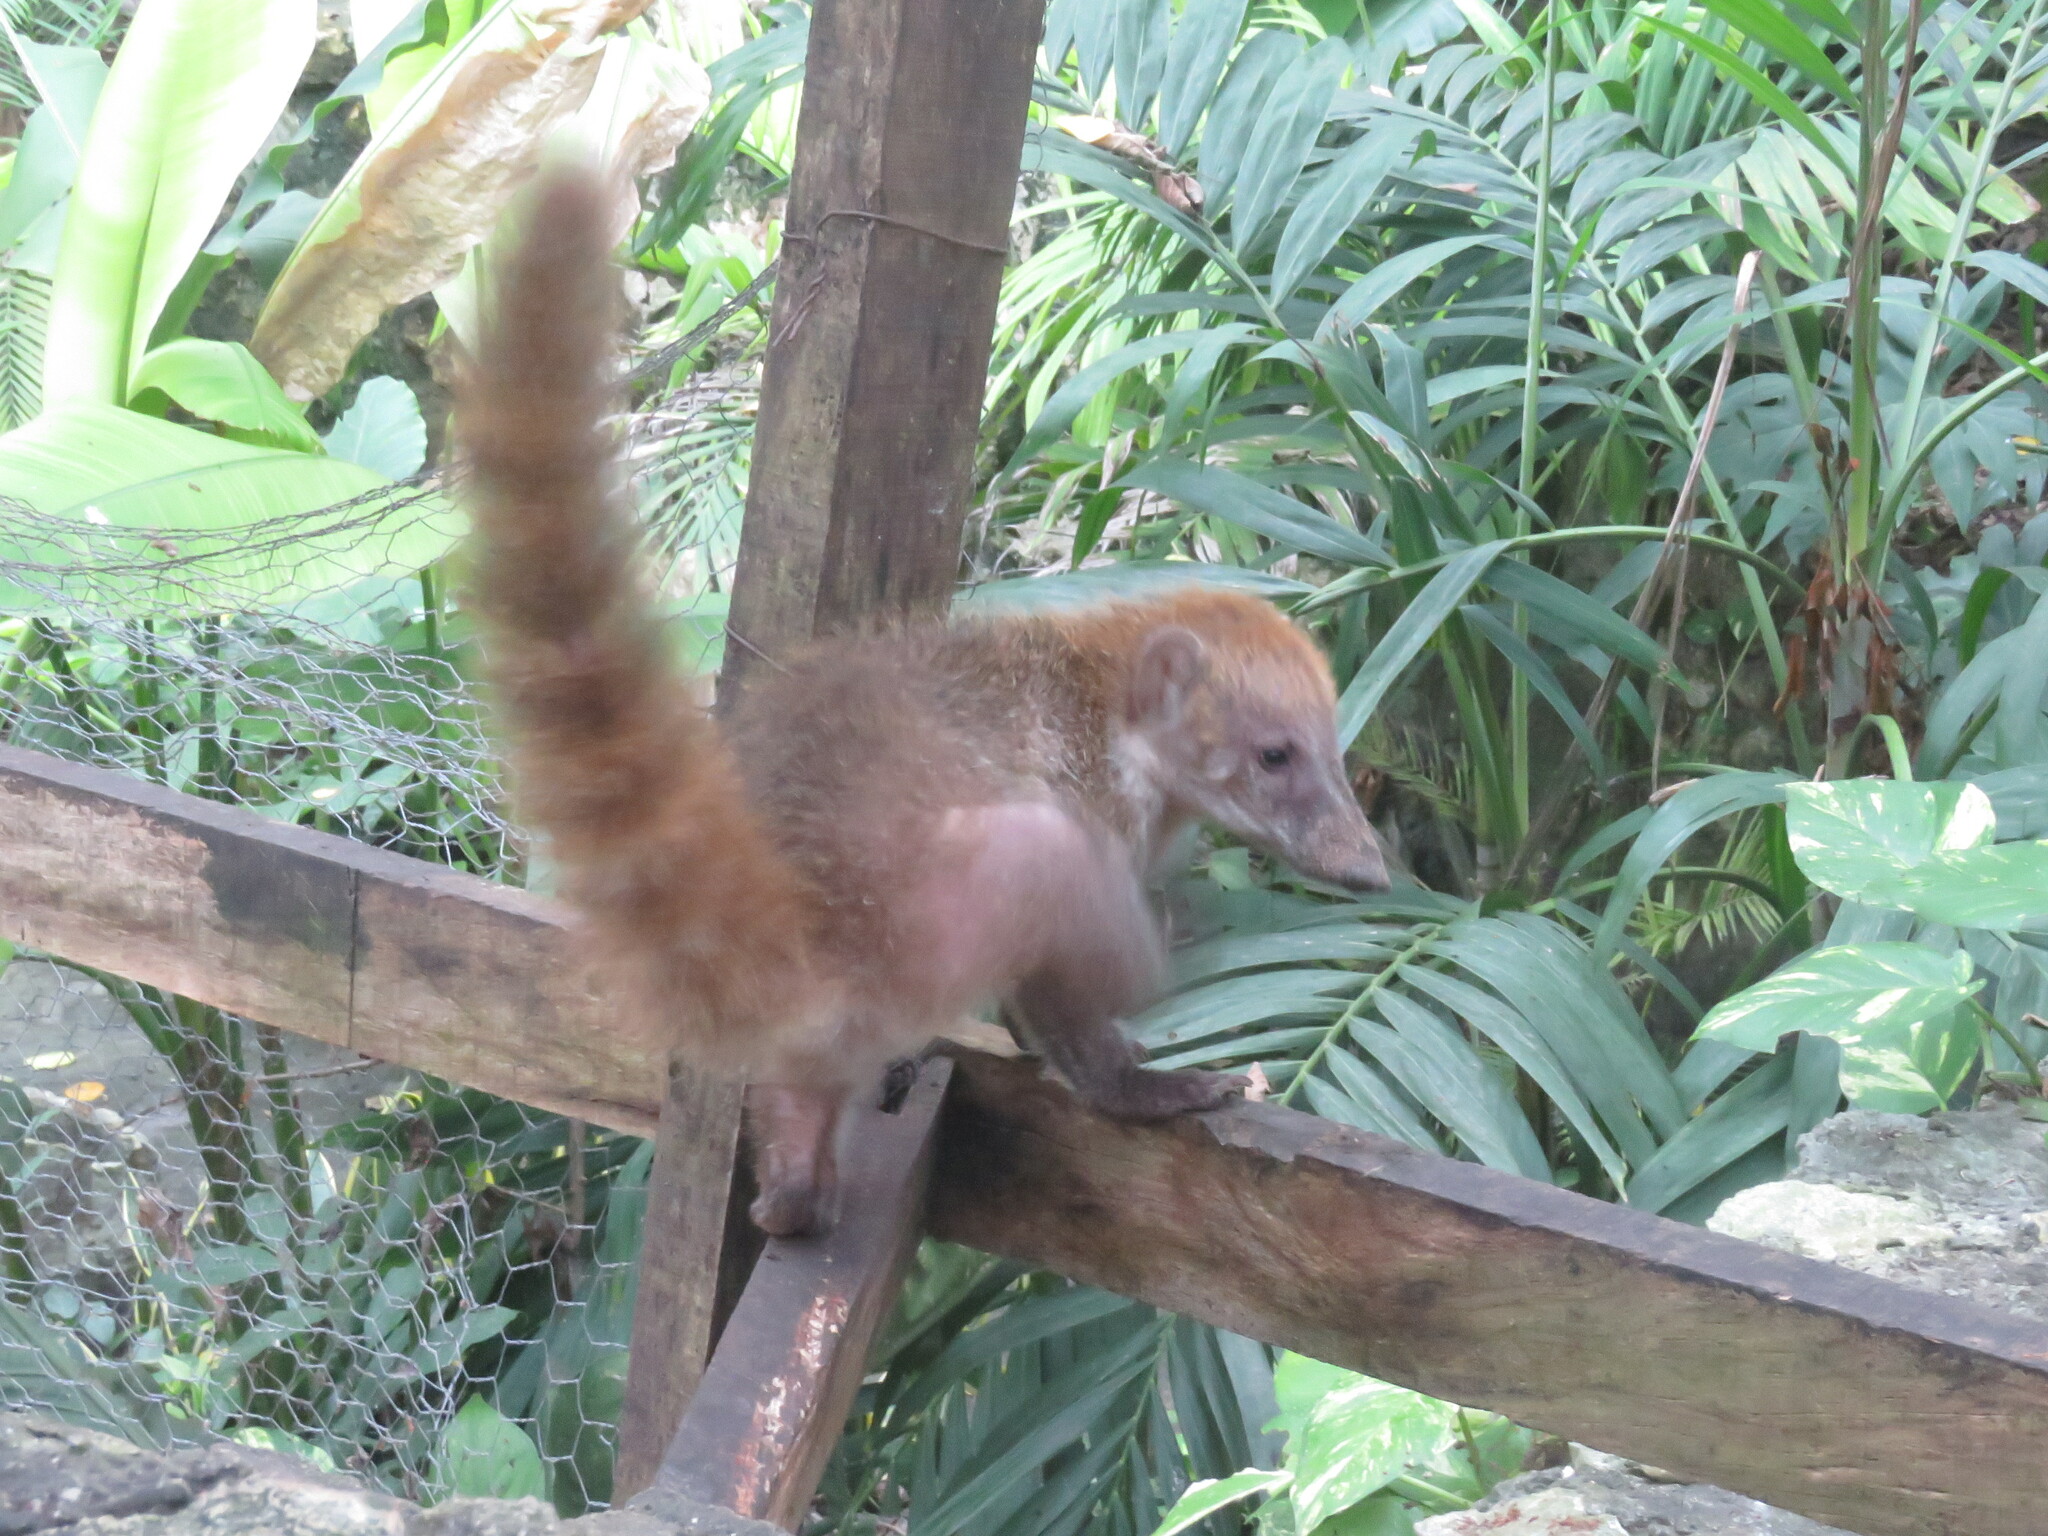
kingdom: Animalia
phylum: Chordata
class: Mammalia
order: Carnivora
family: Procyonidae
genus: Nasua
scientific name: Nasua narica
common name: White-nosed coati
